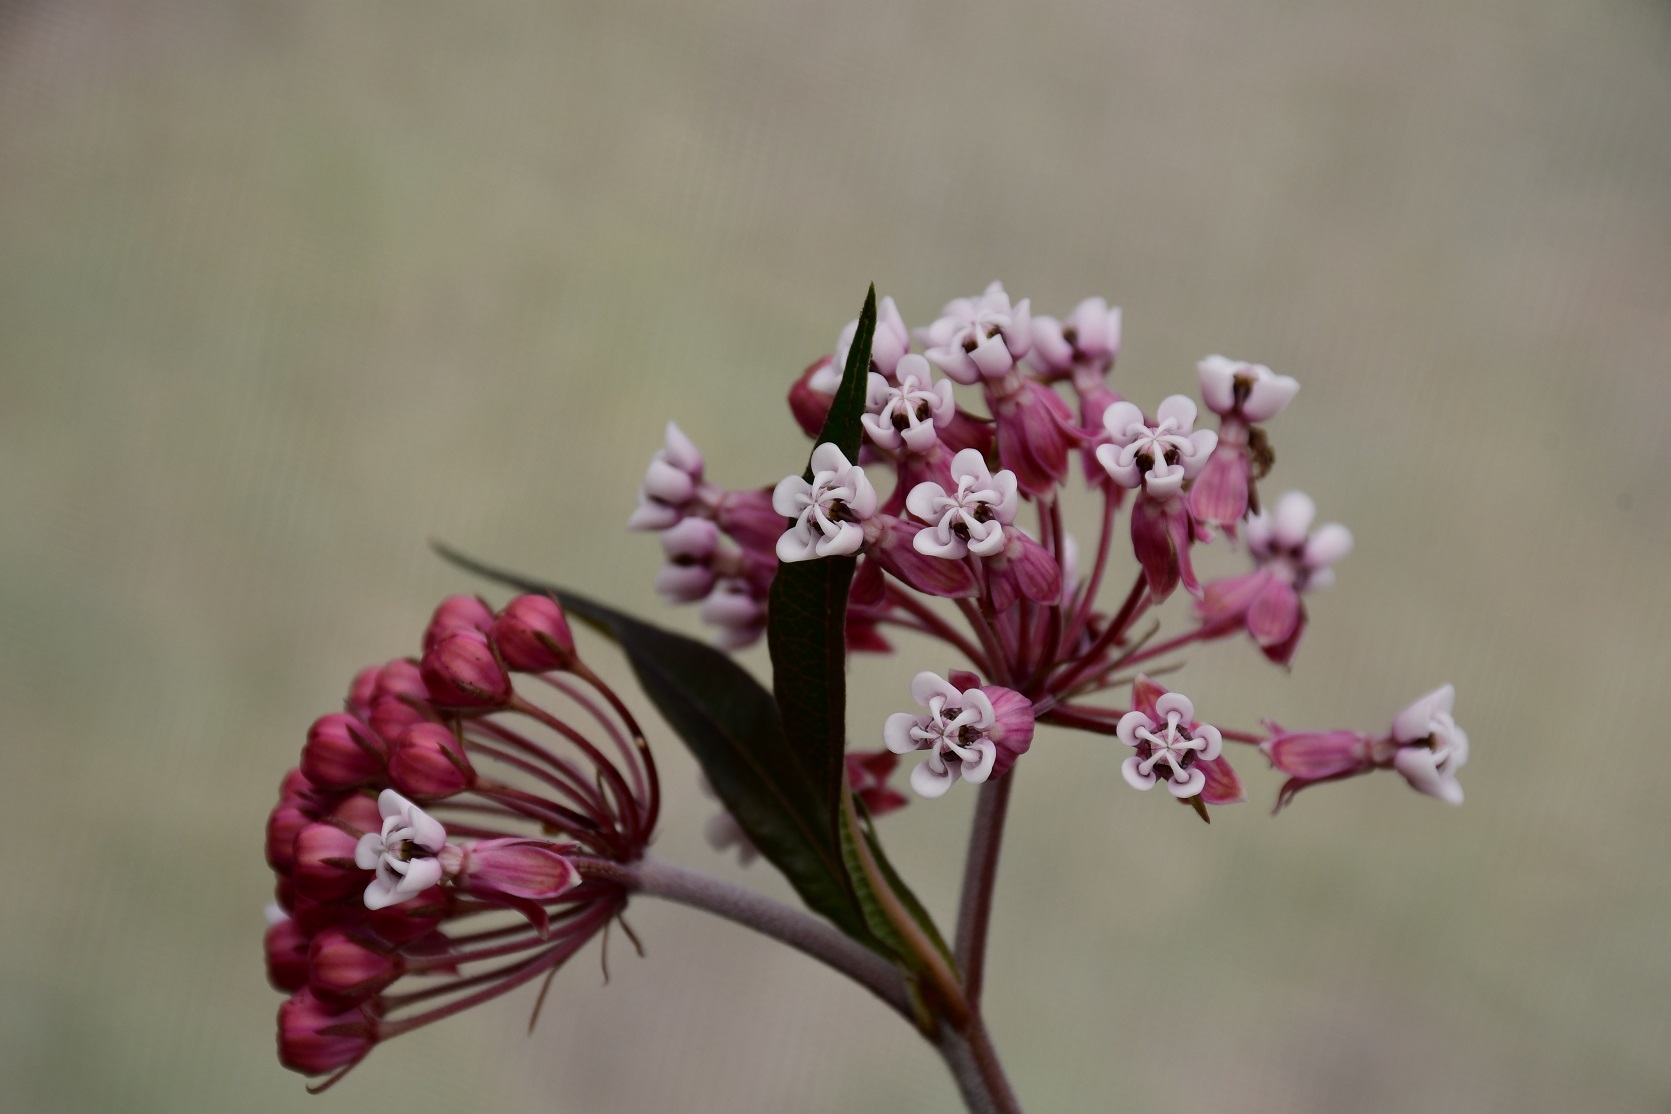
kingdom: Plantae
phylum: Tracheophyta
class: Magnoliopsida
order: Gentianales
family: Apocynaceae
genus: Asclepias
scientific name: Asclepias pellucida
